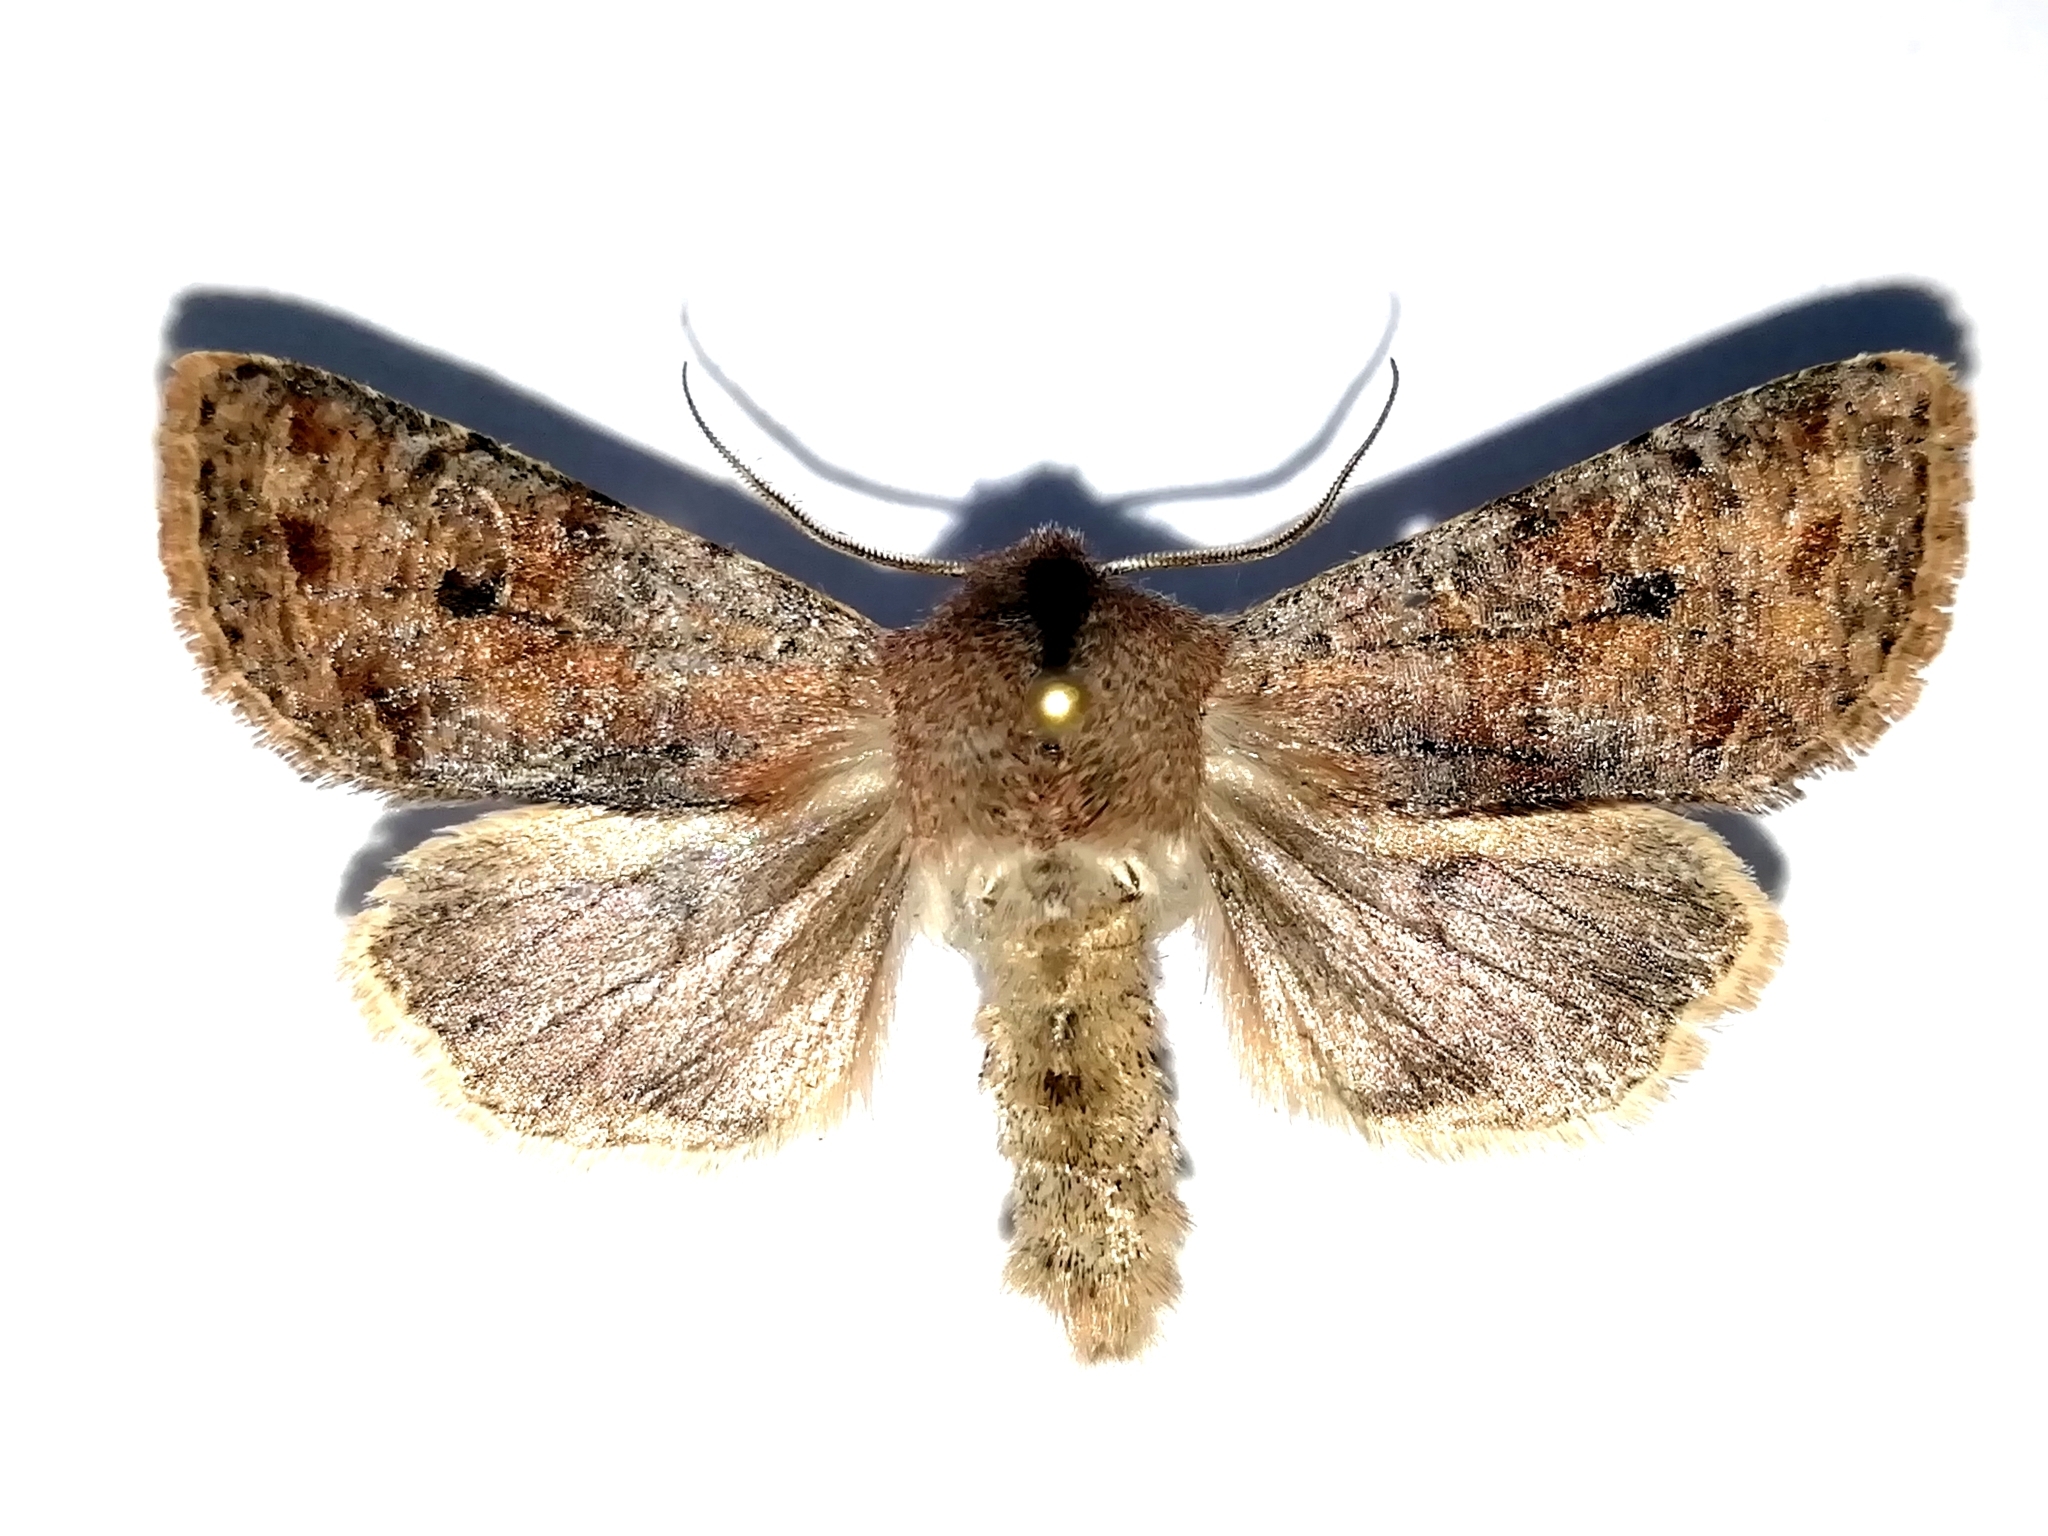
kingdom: Animalia
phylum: Arthropoda
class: Insecta
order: Lepidoptera
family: Noctuidae
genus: Orthosia
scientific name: Orthosia incerta
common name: Clouded drab
